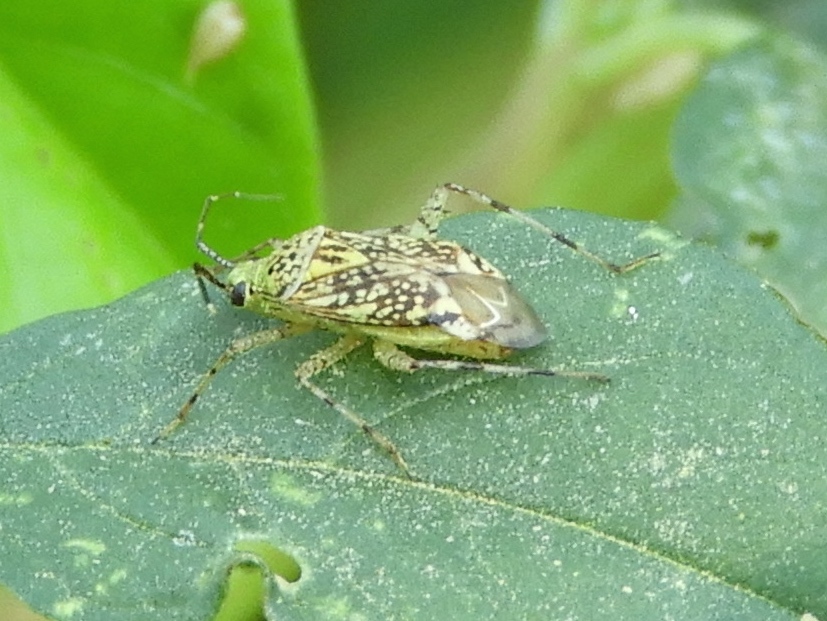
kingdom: Animalia
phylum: Arthropoda
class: Insecta
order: Hemiptera
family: Miridae
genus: Taedia
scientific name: Taedia marmorata
